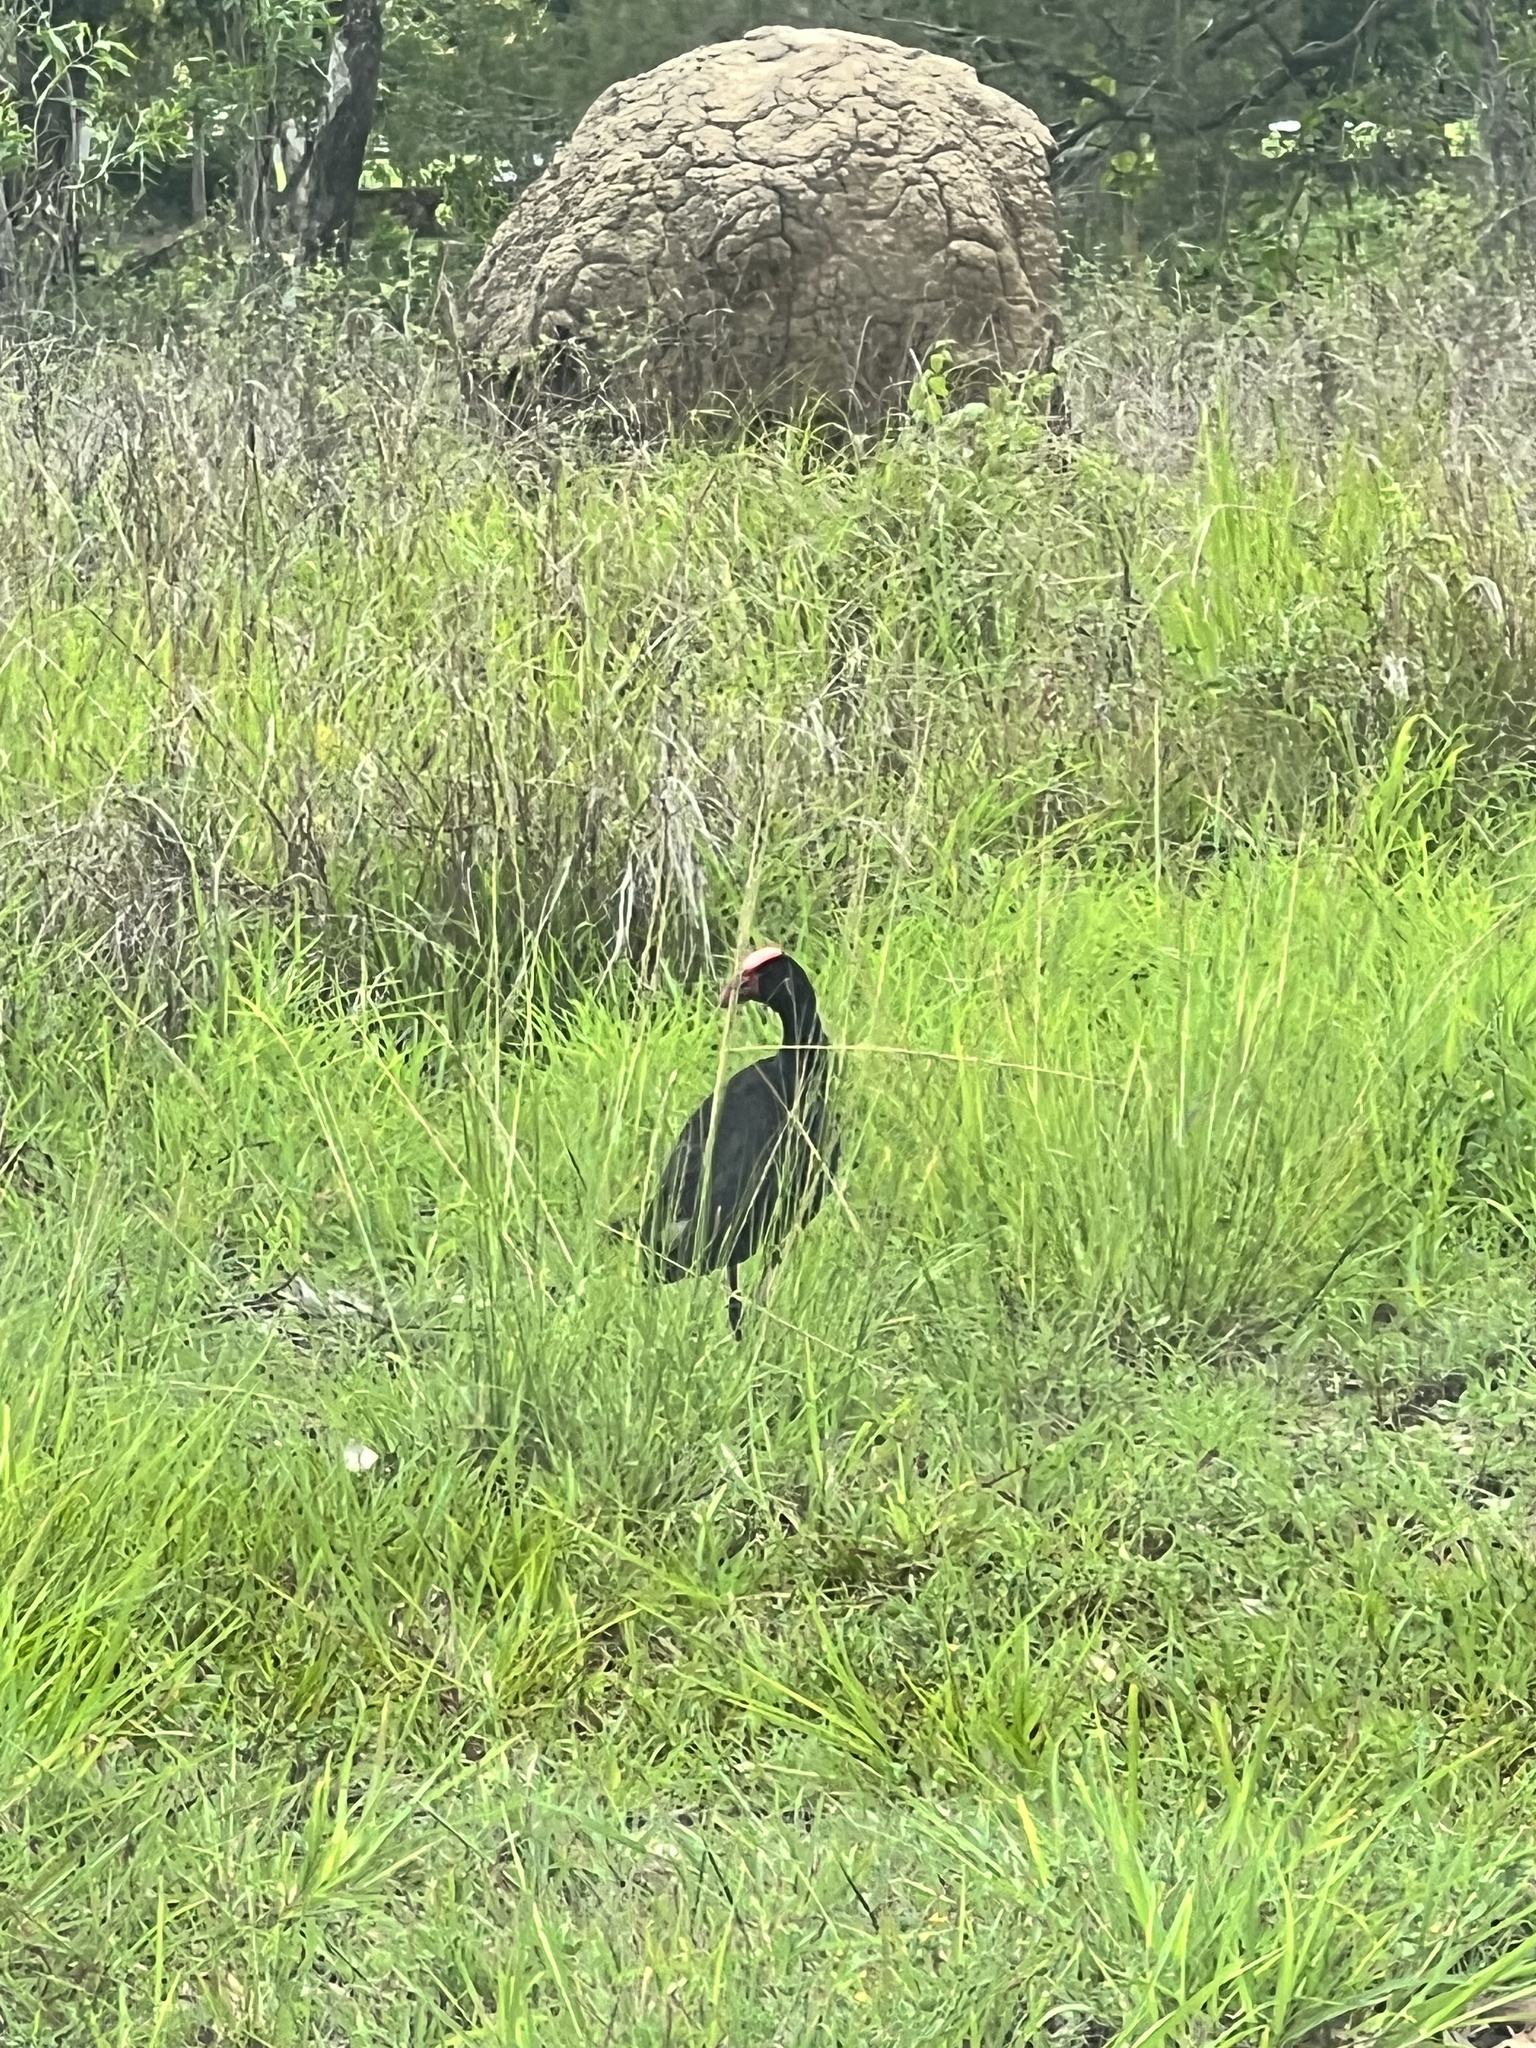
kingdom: Animalia
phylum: Chordata
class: Aves
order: Gruiformes
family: Rallidae
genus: Porphyrio
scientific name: Porphyrio melanotus
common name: Australasian swamphen
